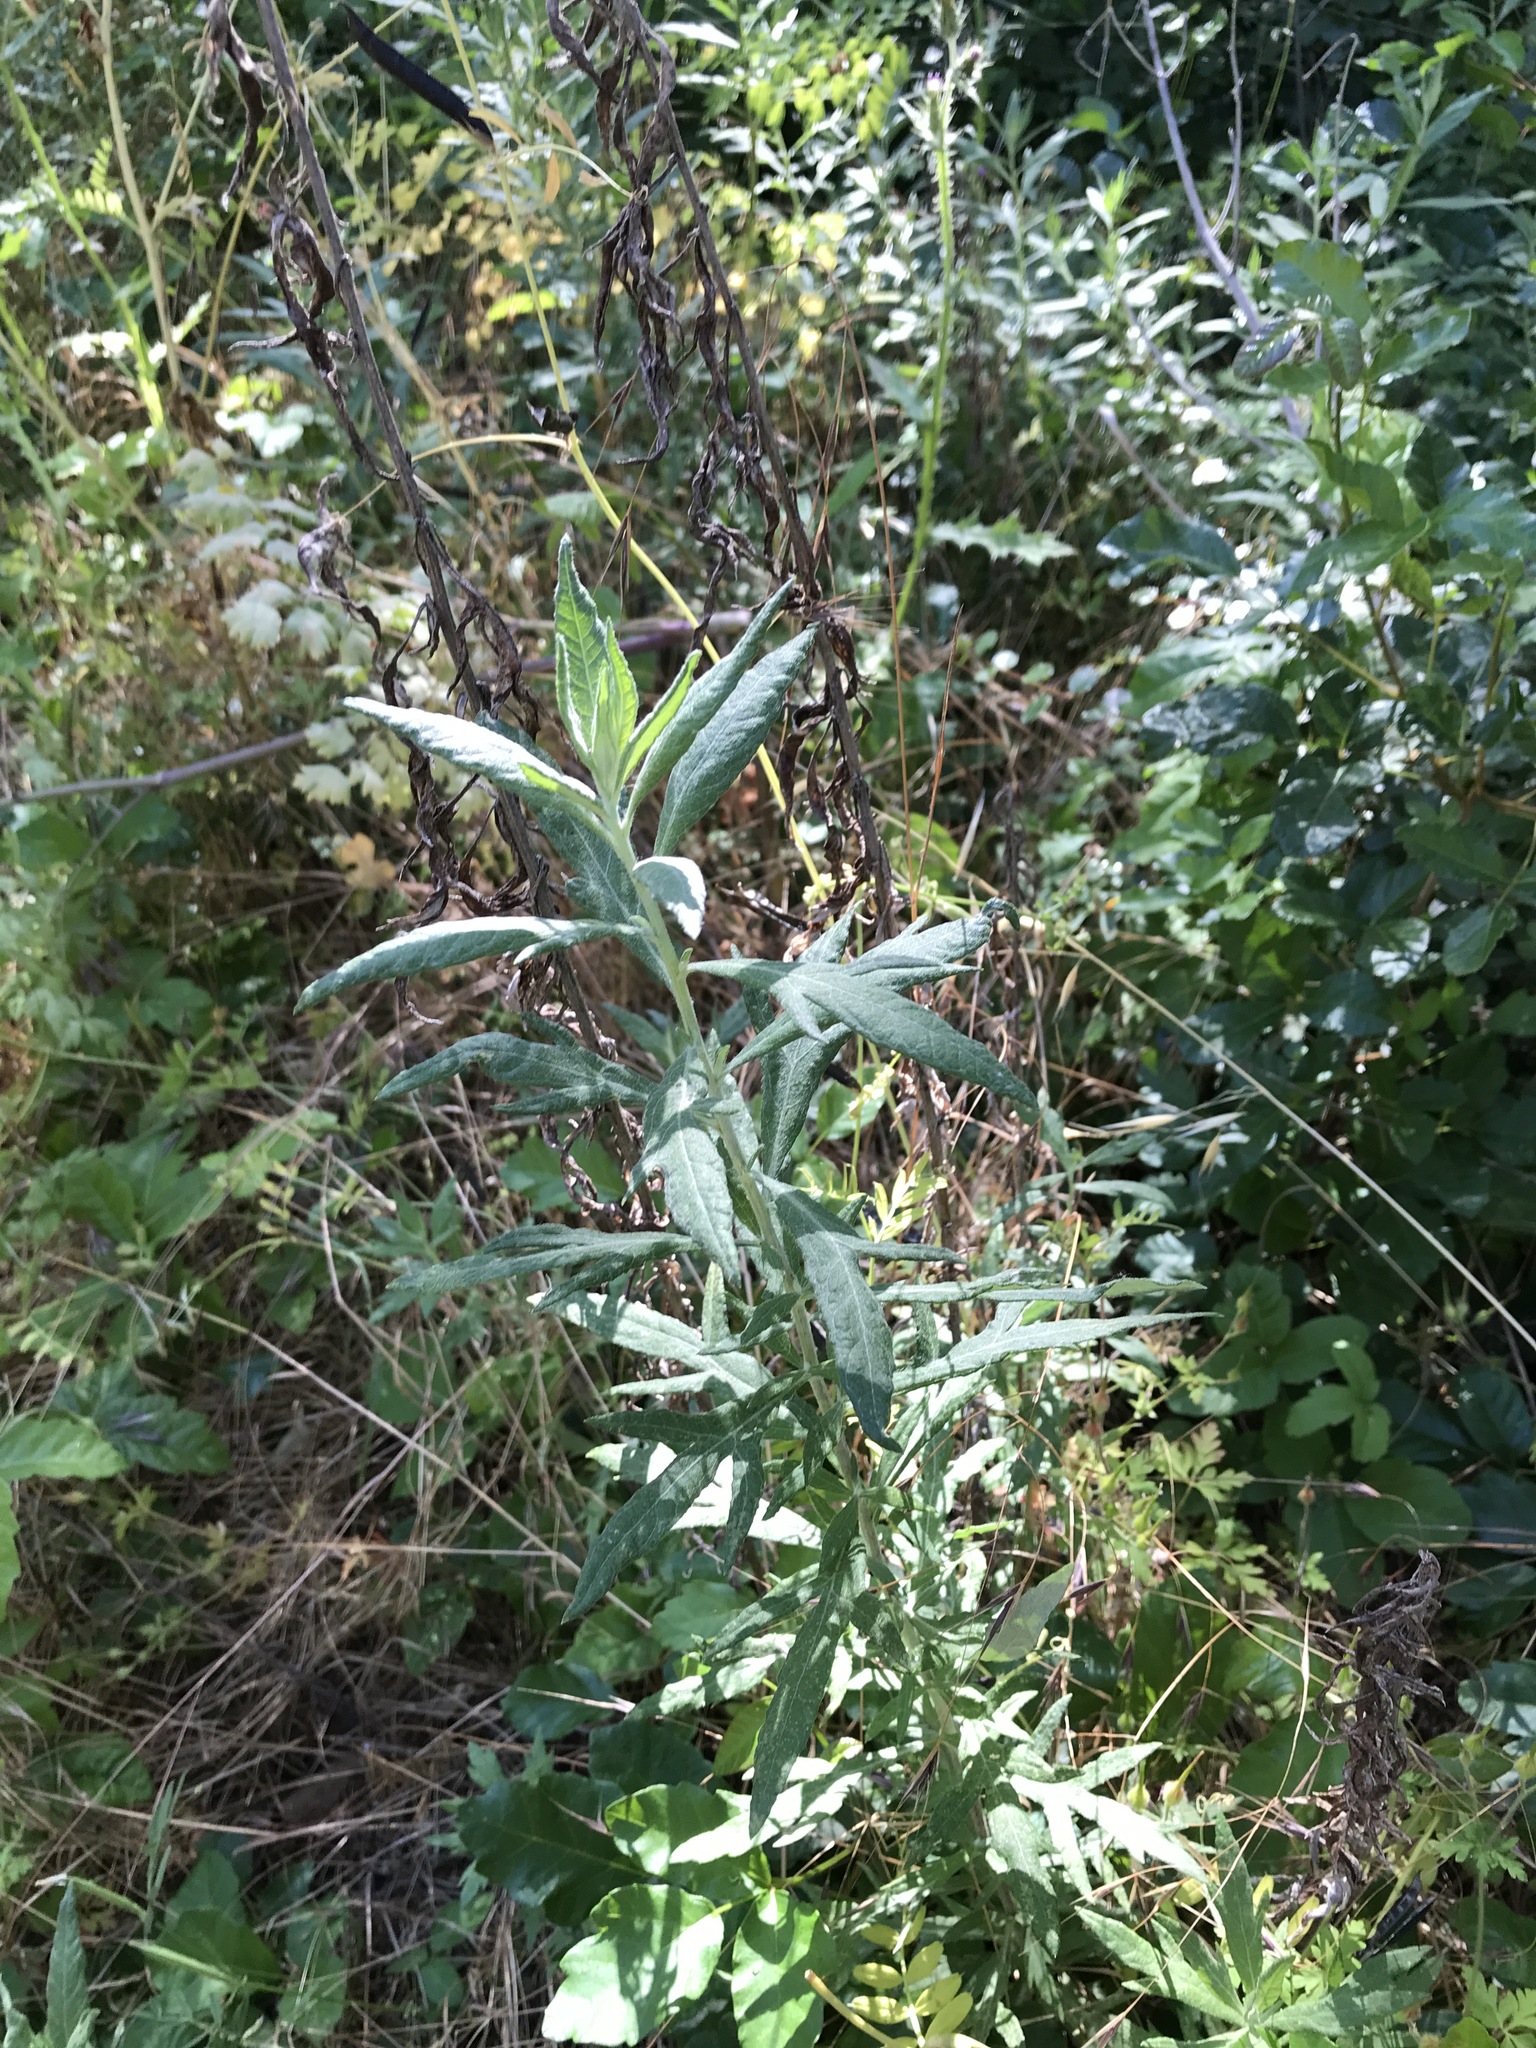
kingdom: Plantae
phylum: Tracheophyta
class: Magnoliopsida
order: Asterales
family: Asteraceae
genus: Artemisia
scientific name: Artemisia douglasiana
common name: Northwest mugwort
